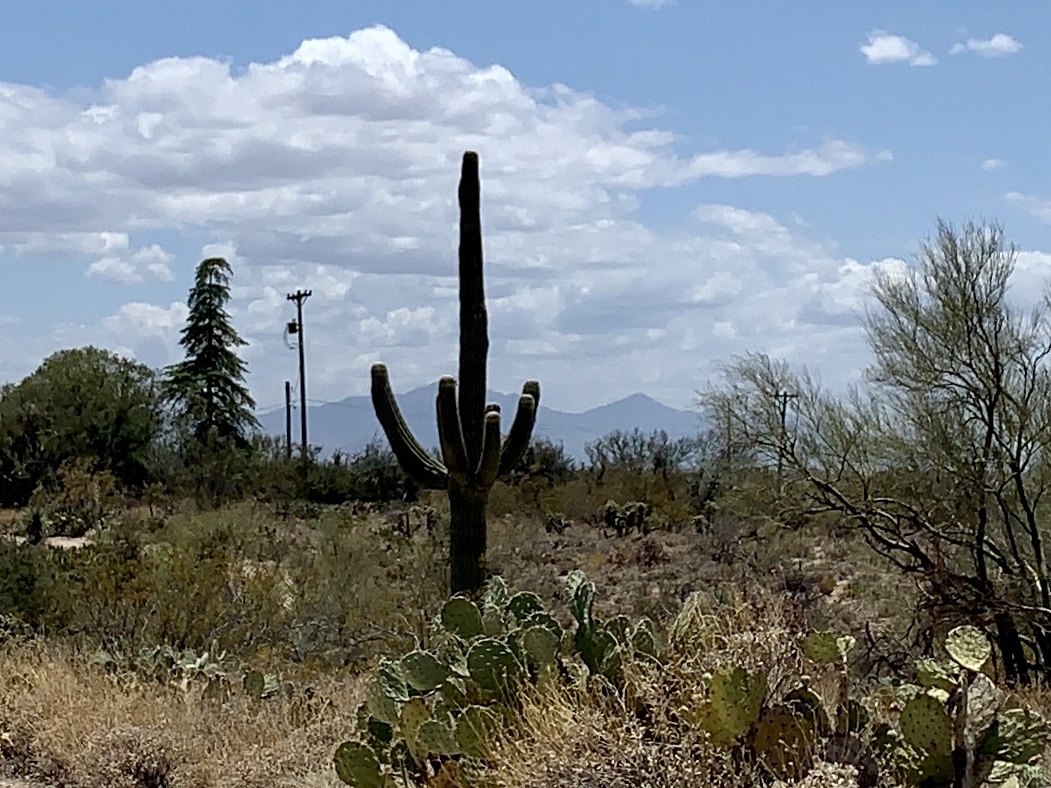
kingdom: Plantae
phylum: Tracheophyta
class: Magnoliopsida
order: Caryophyllales
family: Cactaceae
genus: Carnegiea
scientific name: Carnegiea gigantea
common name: Saguaro
